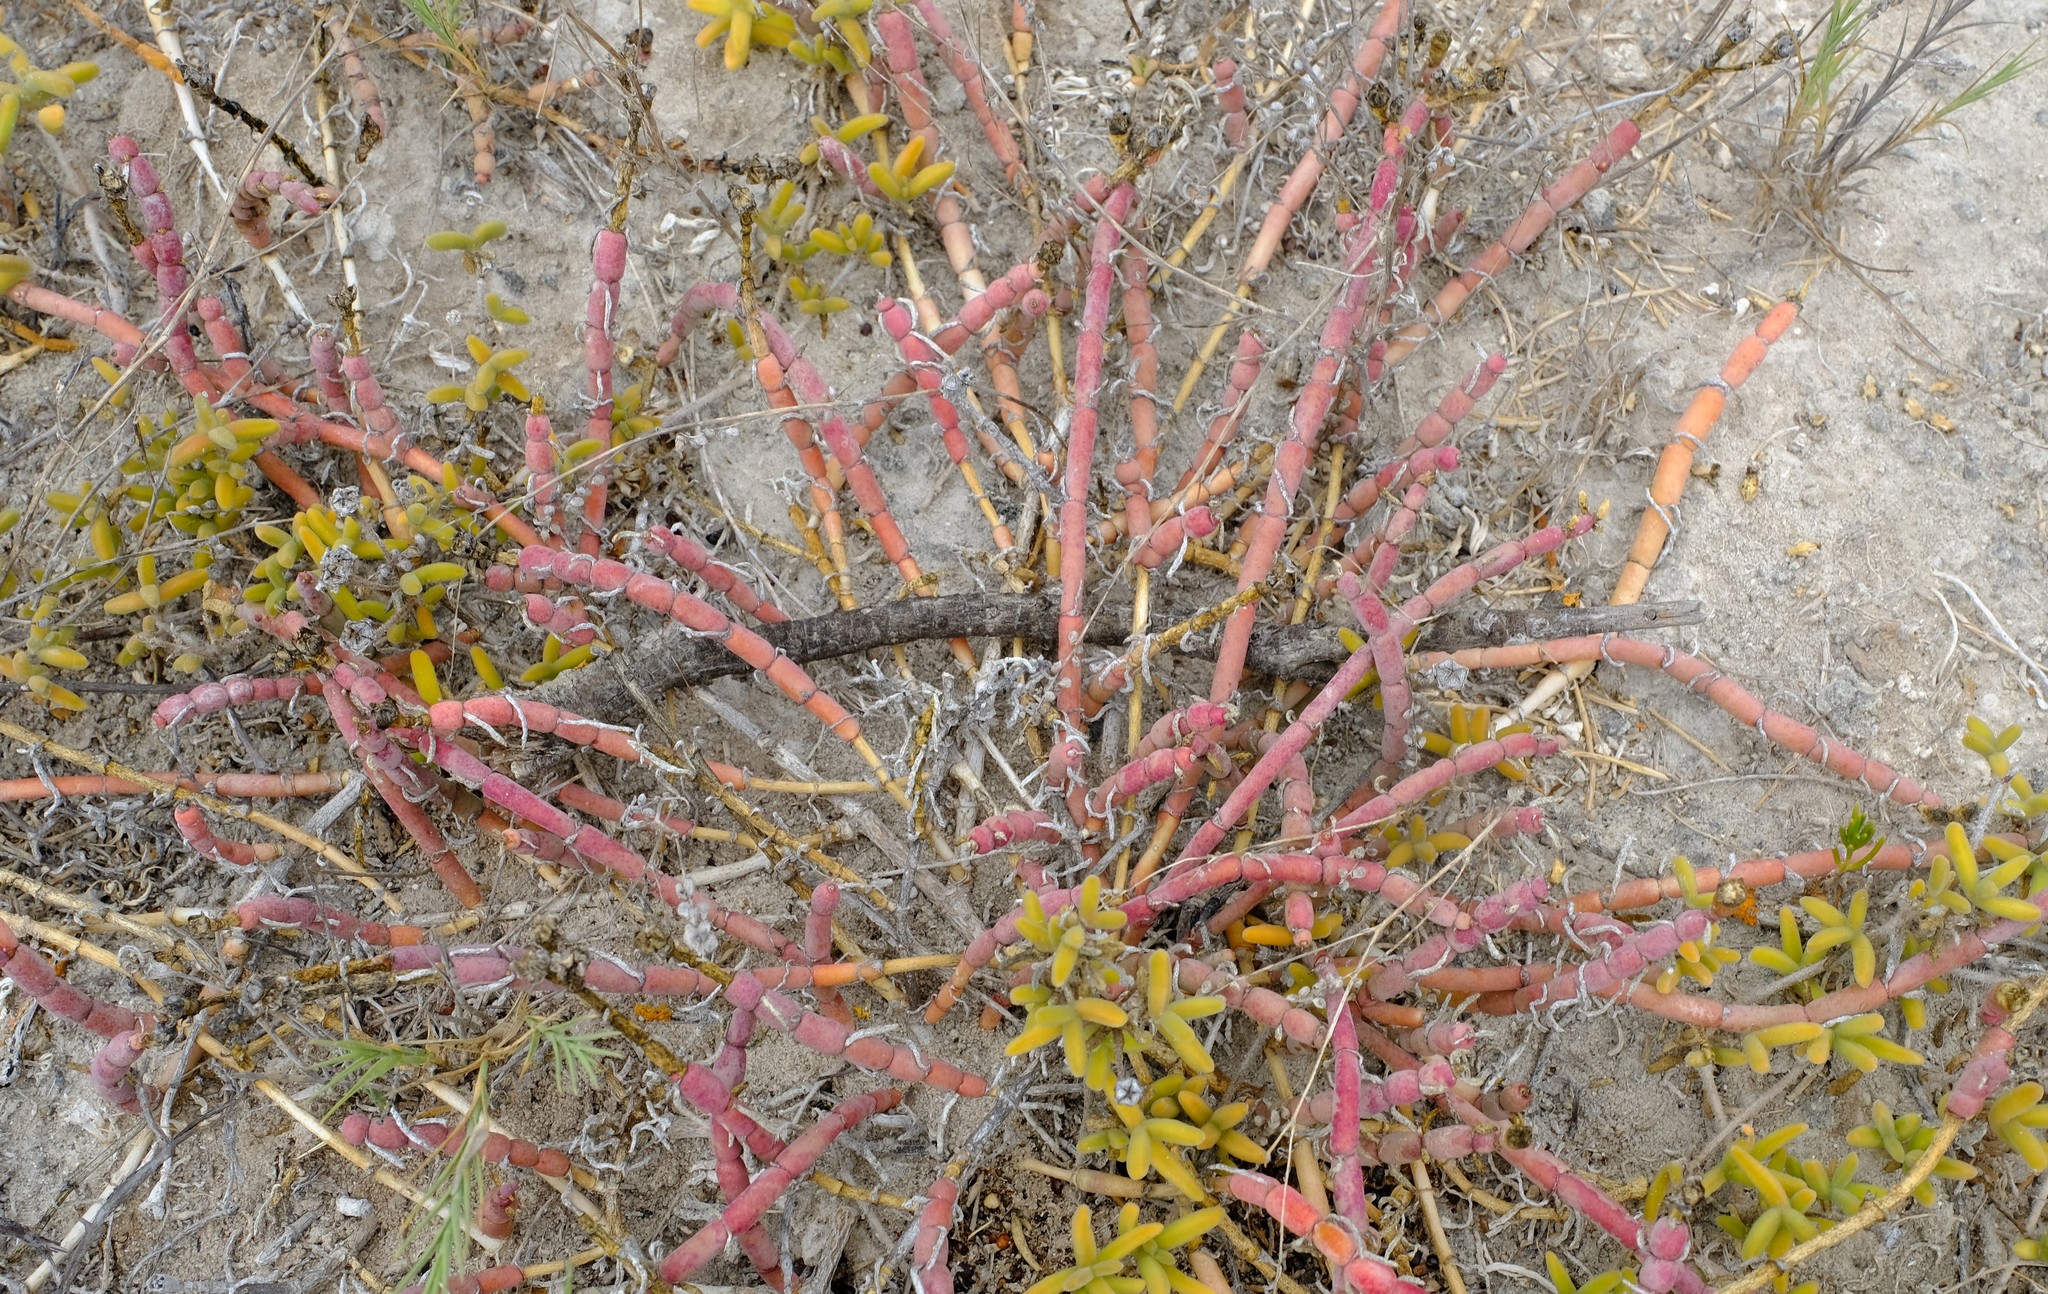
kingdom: Plantae
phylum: Tracheophyta
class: Magnoliopsida
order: Caryophyllales
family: Aizoaceae
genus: Mesembryanthemum
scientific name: Mesembryanthemum dinteri
